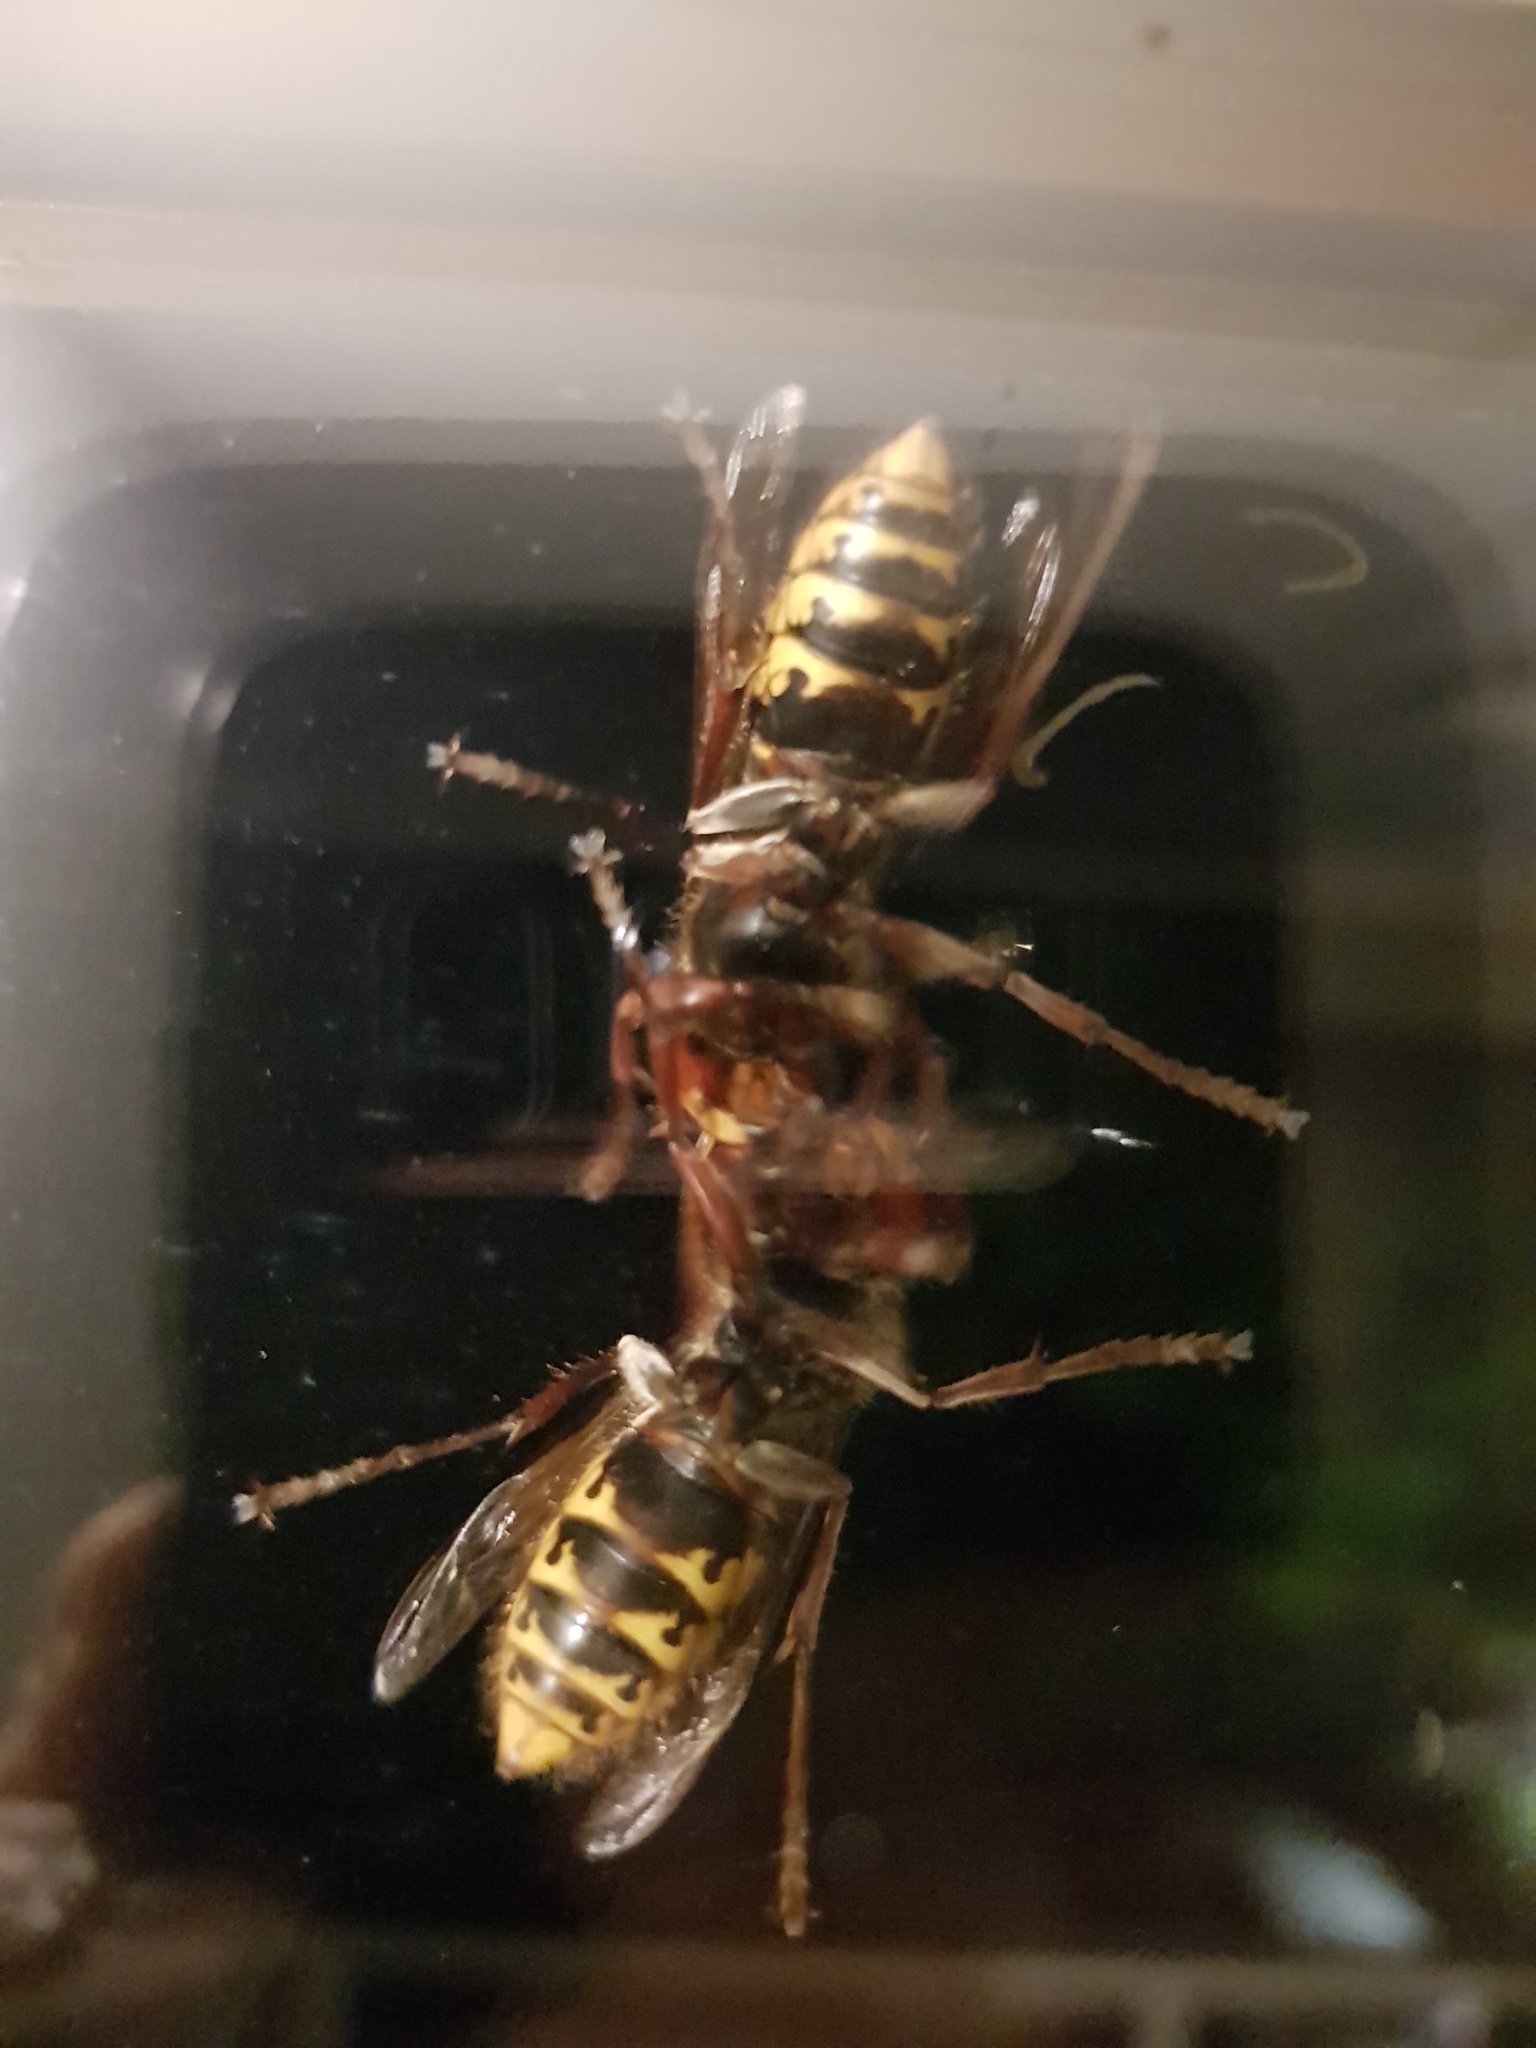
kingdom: Animalia
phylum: Arthropoda
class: Insecta
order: Hymenoptera
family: Vespidae
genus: Vespa
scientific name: Vespa crabro
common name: Hornet
